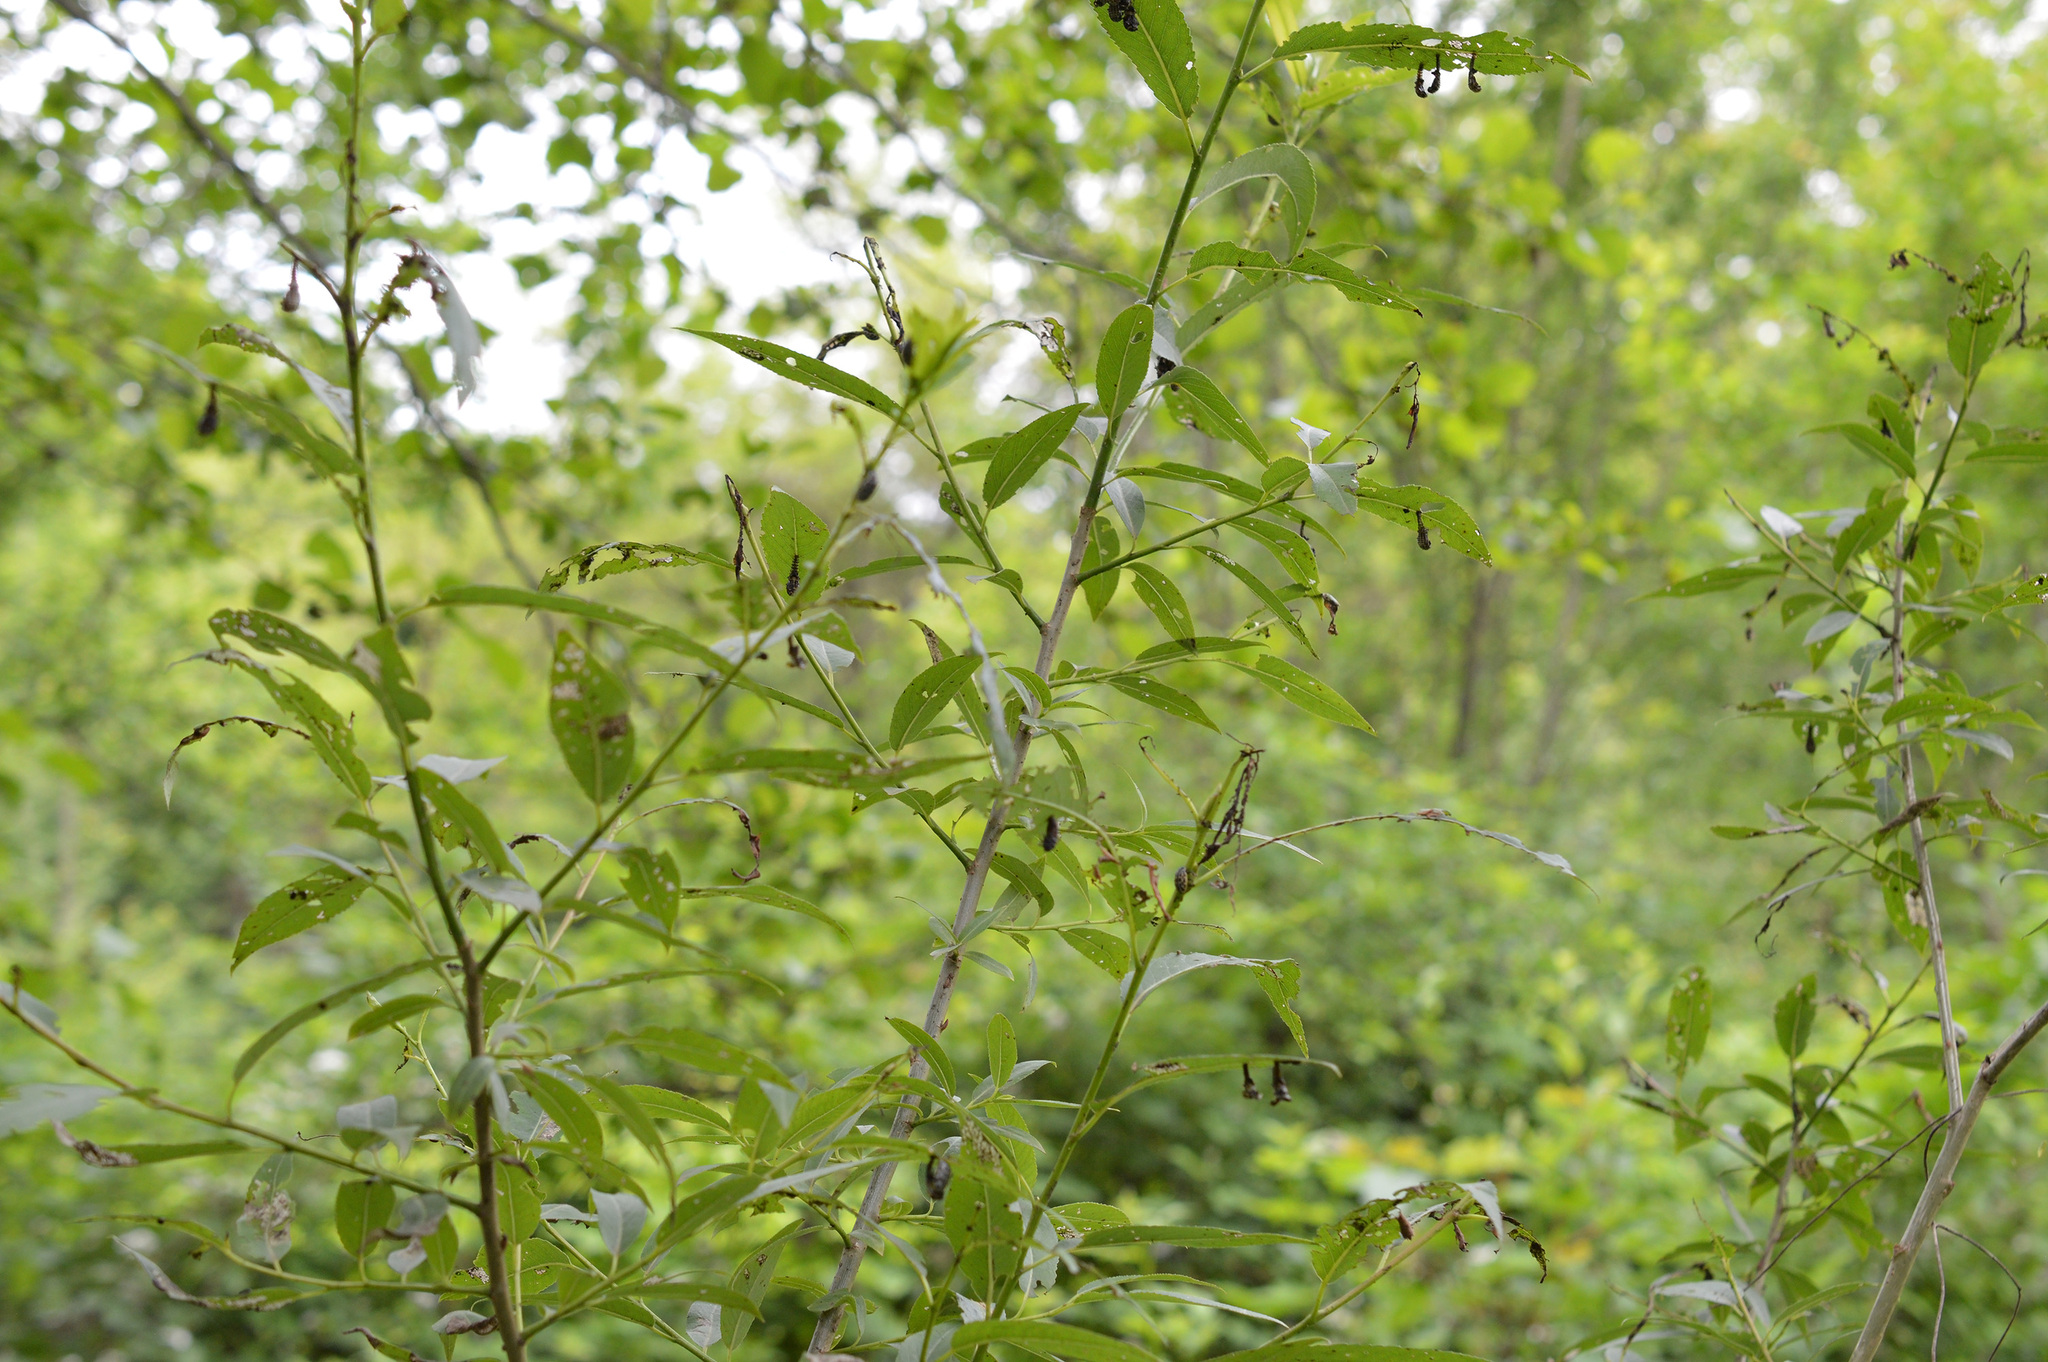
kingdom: Animalia
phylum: Arthropoda
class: Insecta
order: Coleoptera
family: Chrysomelidae
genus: Chrysomela
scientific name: Chrysomela vigintipunctata
